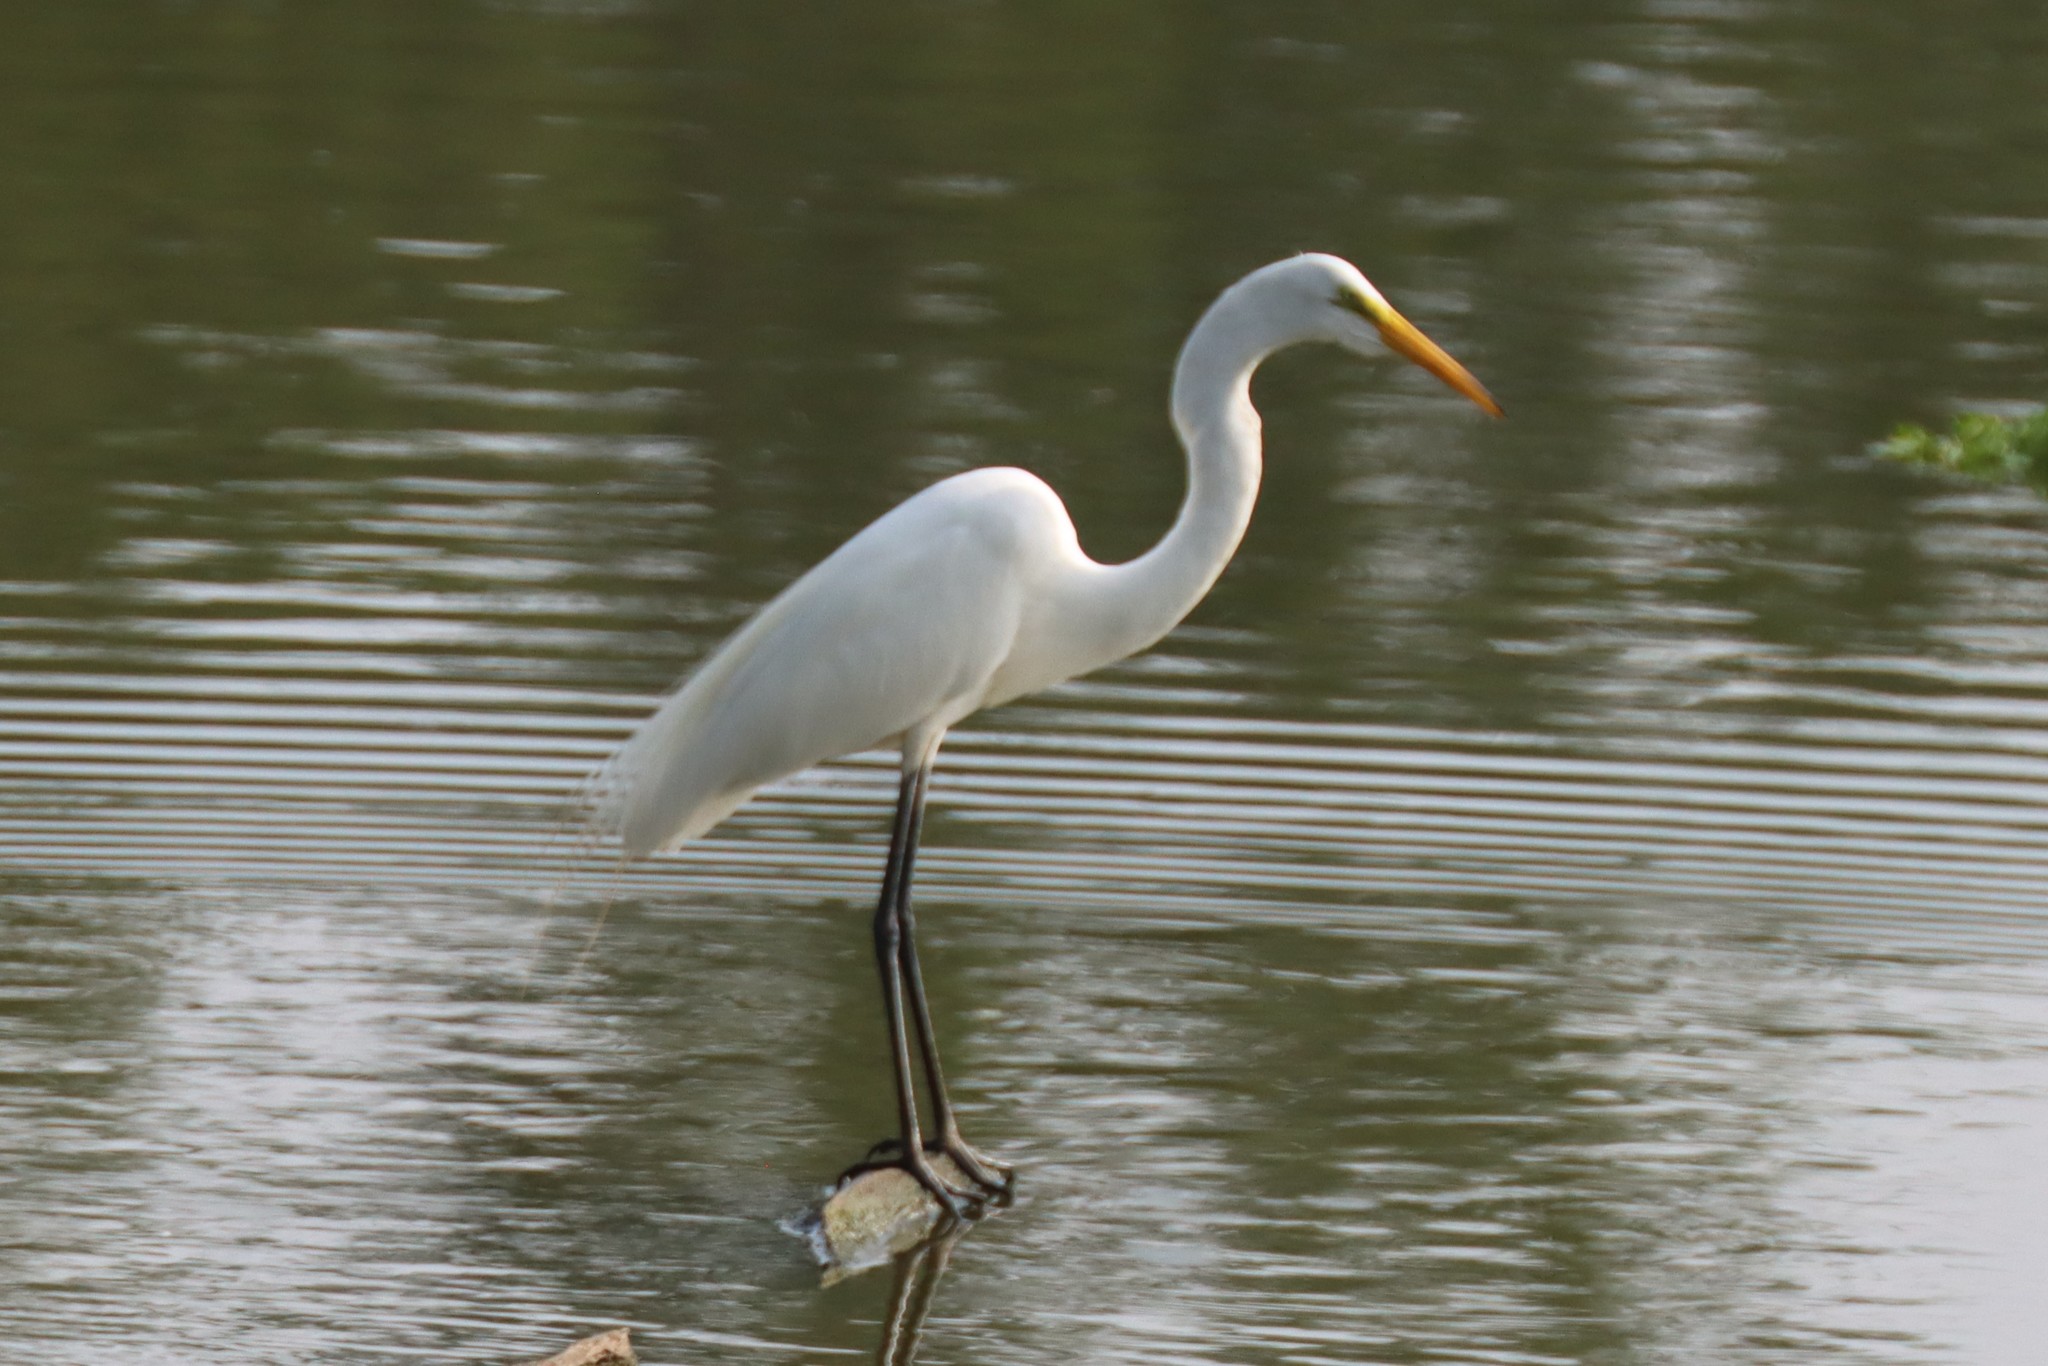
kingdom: Animalia
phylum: Chordata
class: Aves
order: Pelecaniformes
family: Ardeidae
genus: Ardea
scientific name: Ardea alba
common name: Great egret
